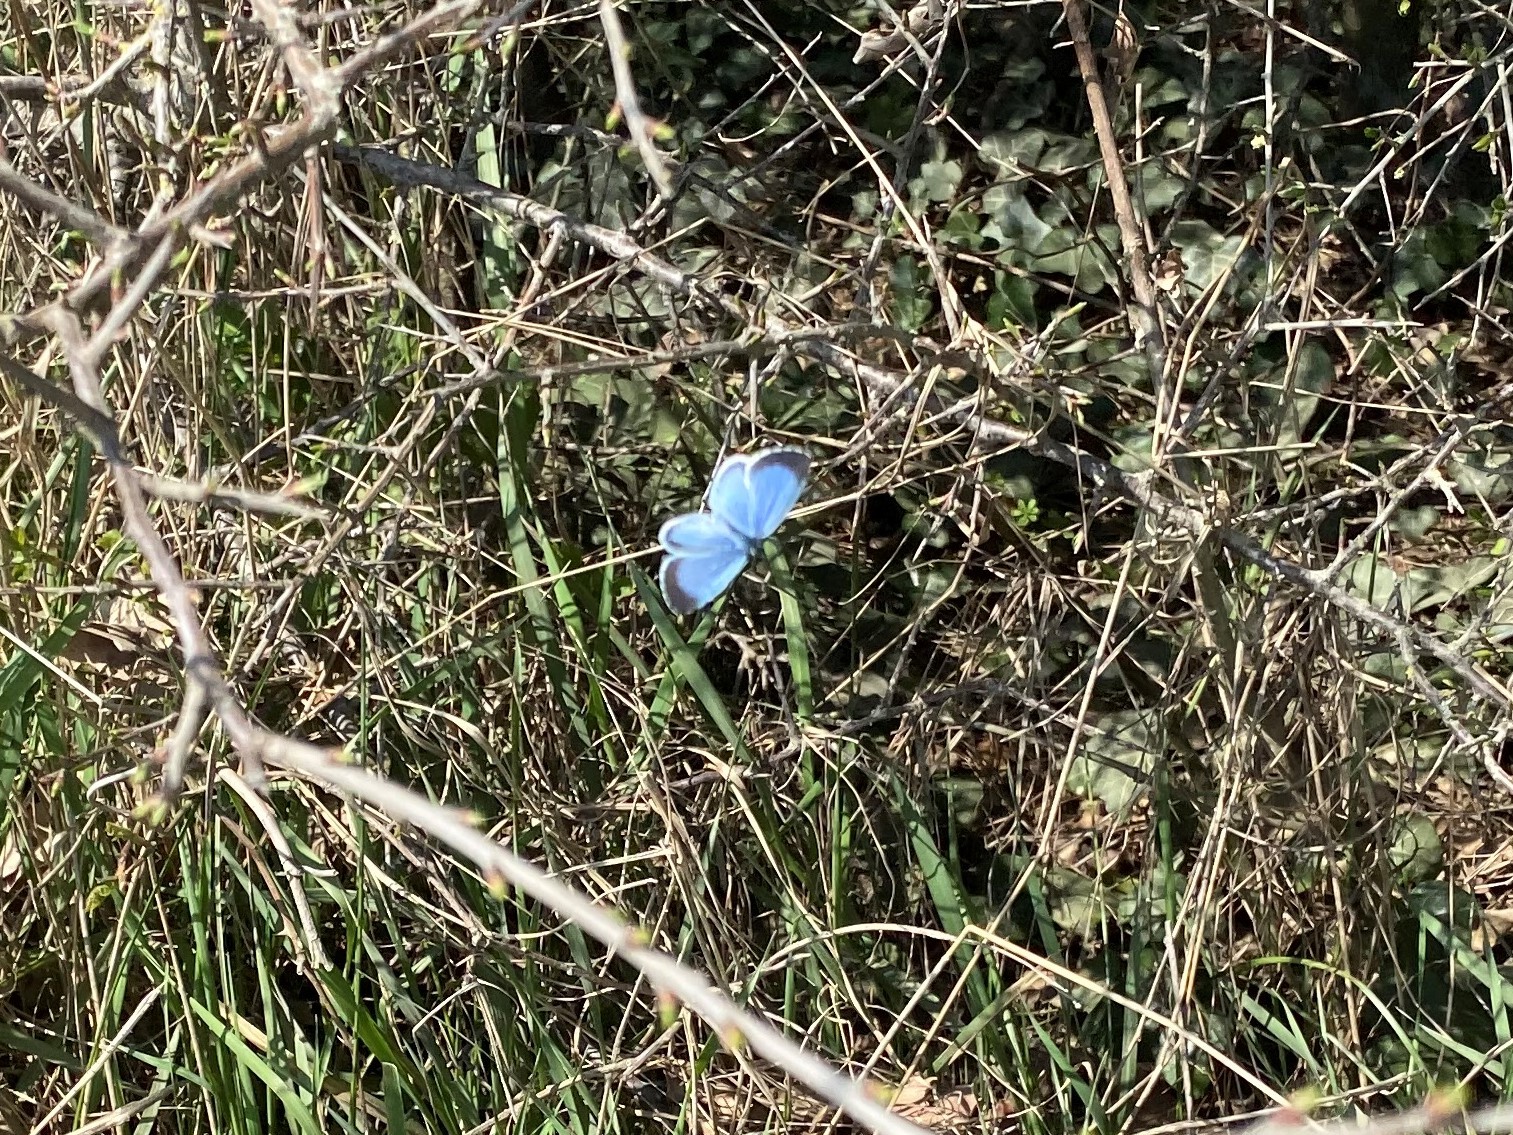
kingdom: Animalia
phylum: Arthropoda
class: Insecta
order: Lepidoptera
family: Lycaenidae
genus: Celastrina
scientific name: Celastrina argiolus
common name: Holly blue
